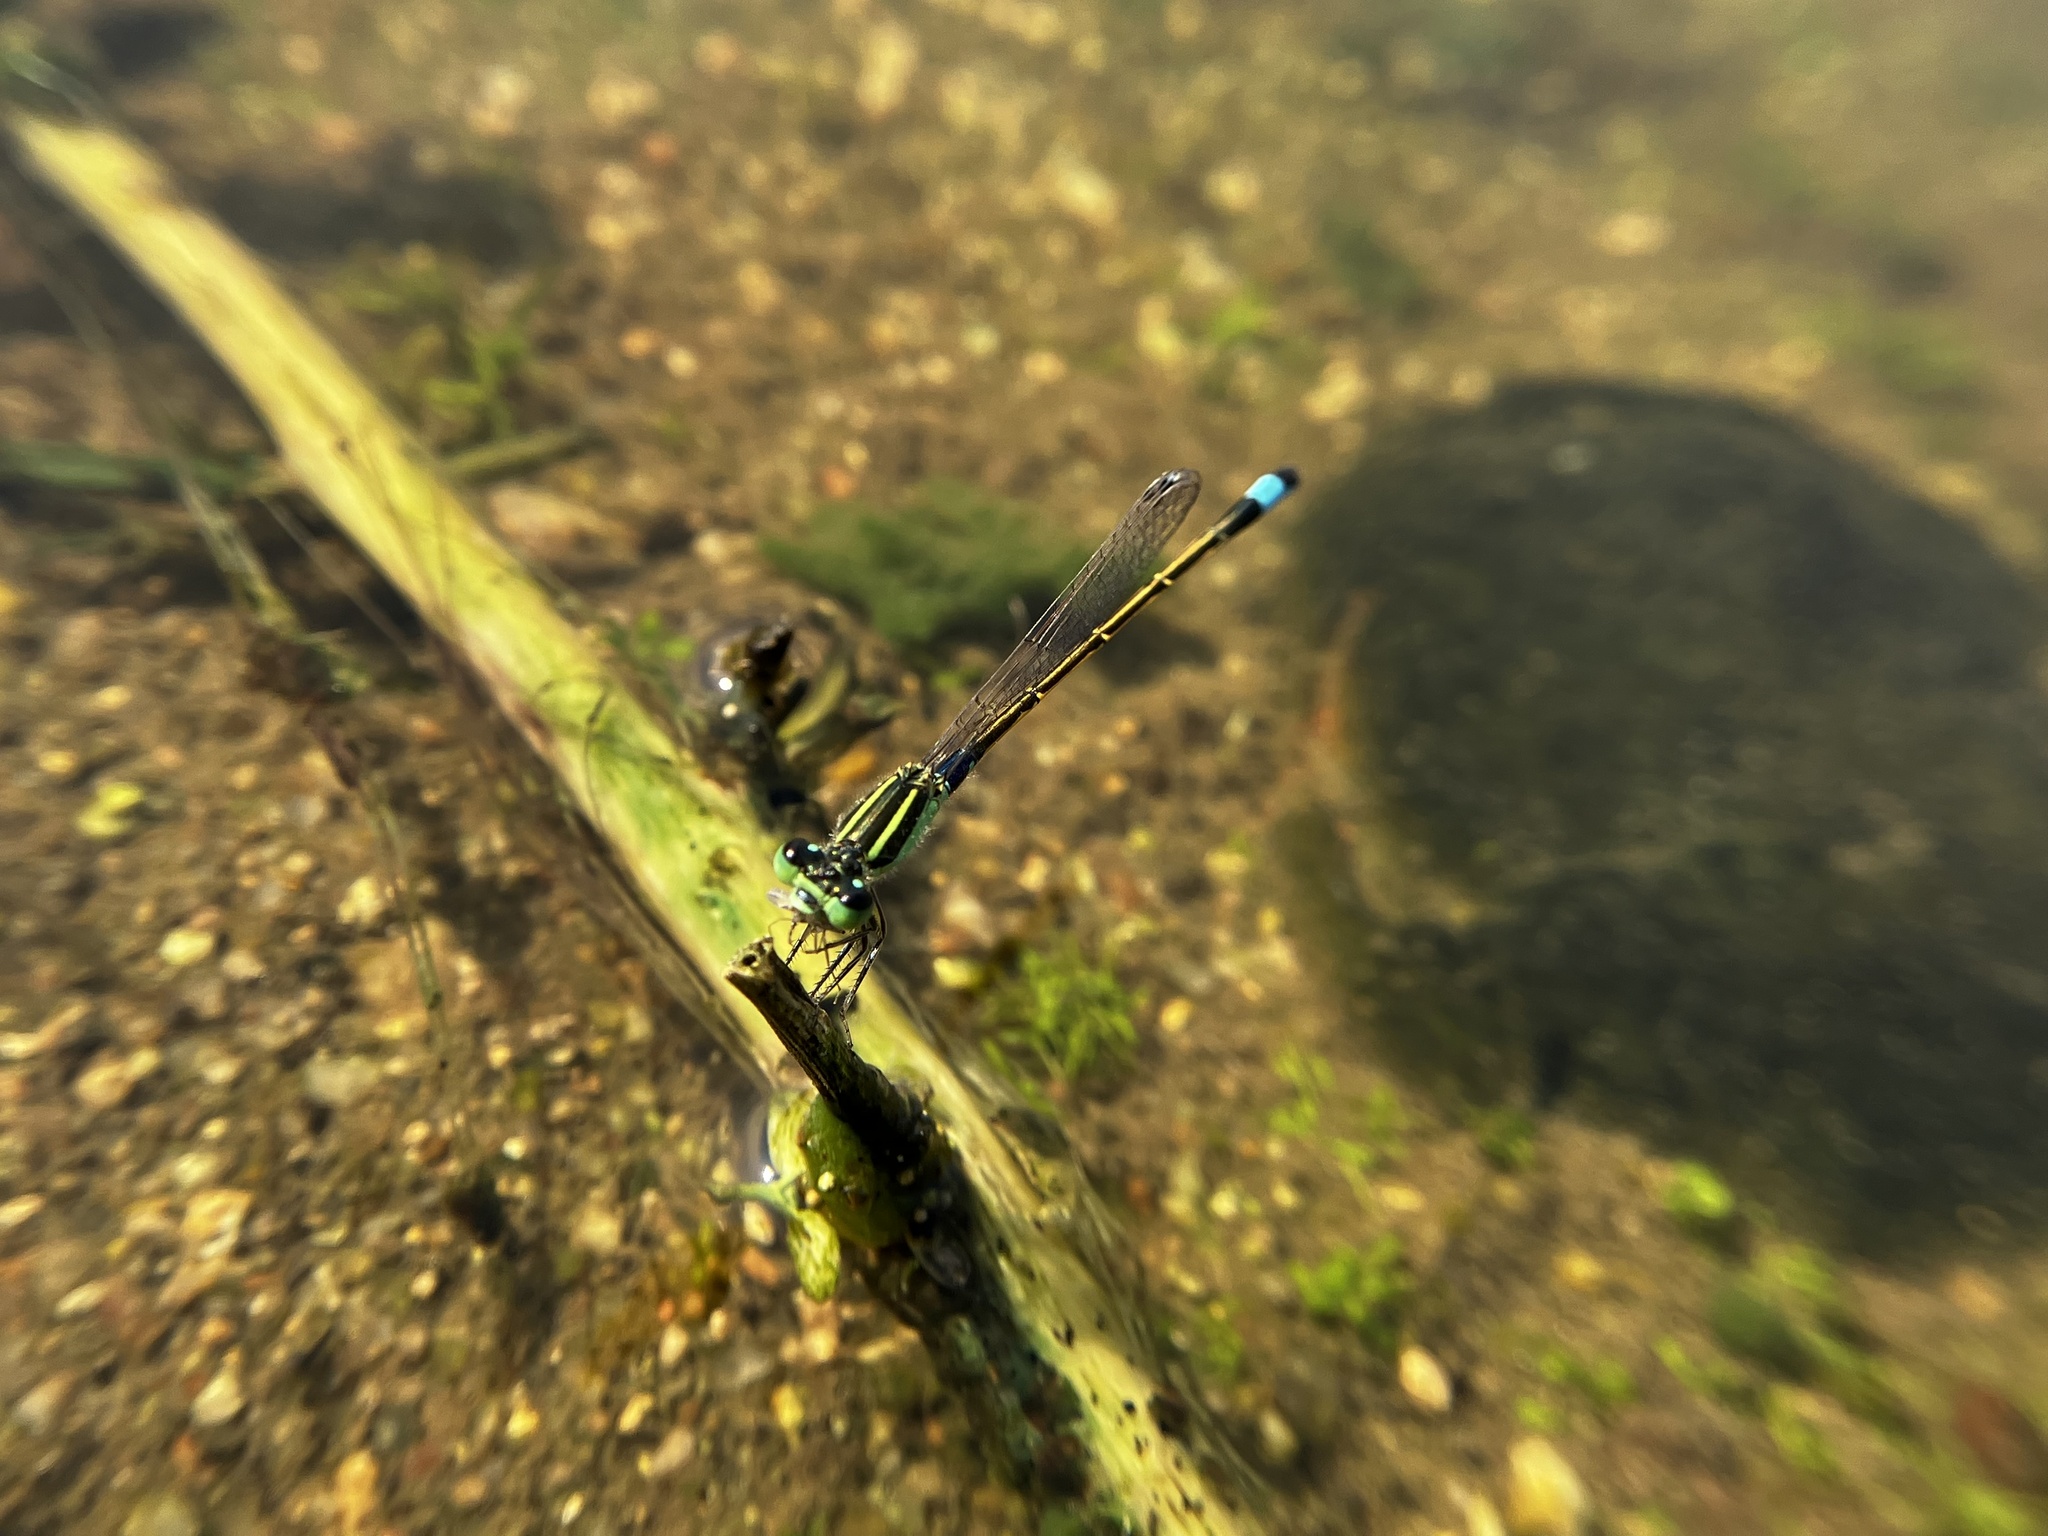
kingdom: Animalia
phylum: Arthropoda
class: Insecta
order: Odonata
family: Coenagrionidae
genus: Ischnura
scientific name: Ischnura senegalensis
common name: Tropical bluetail
